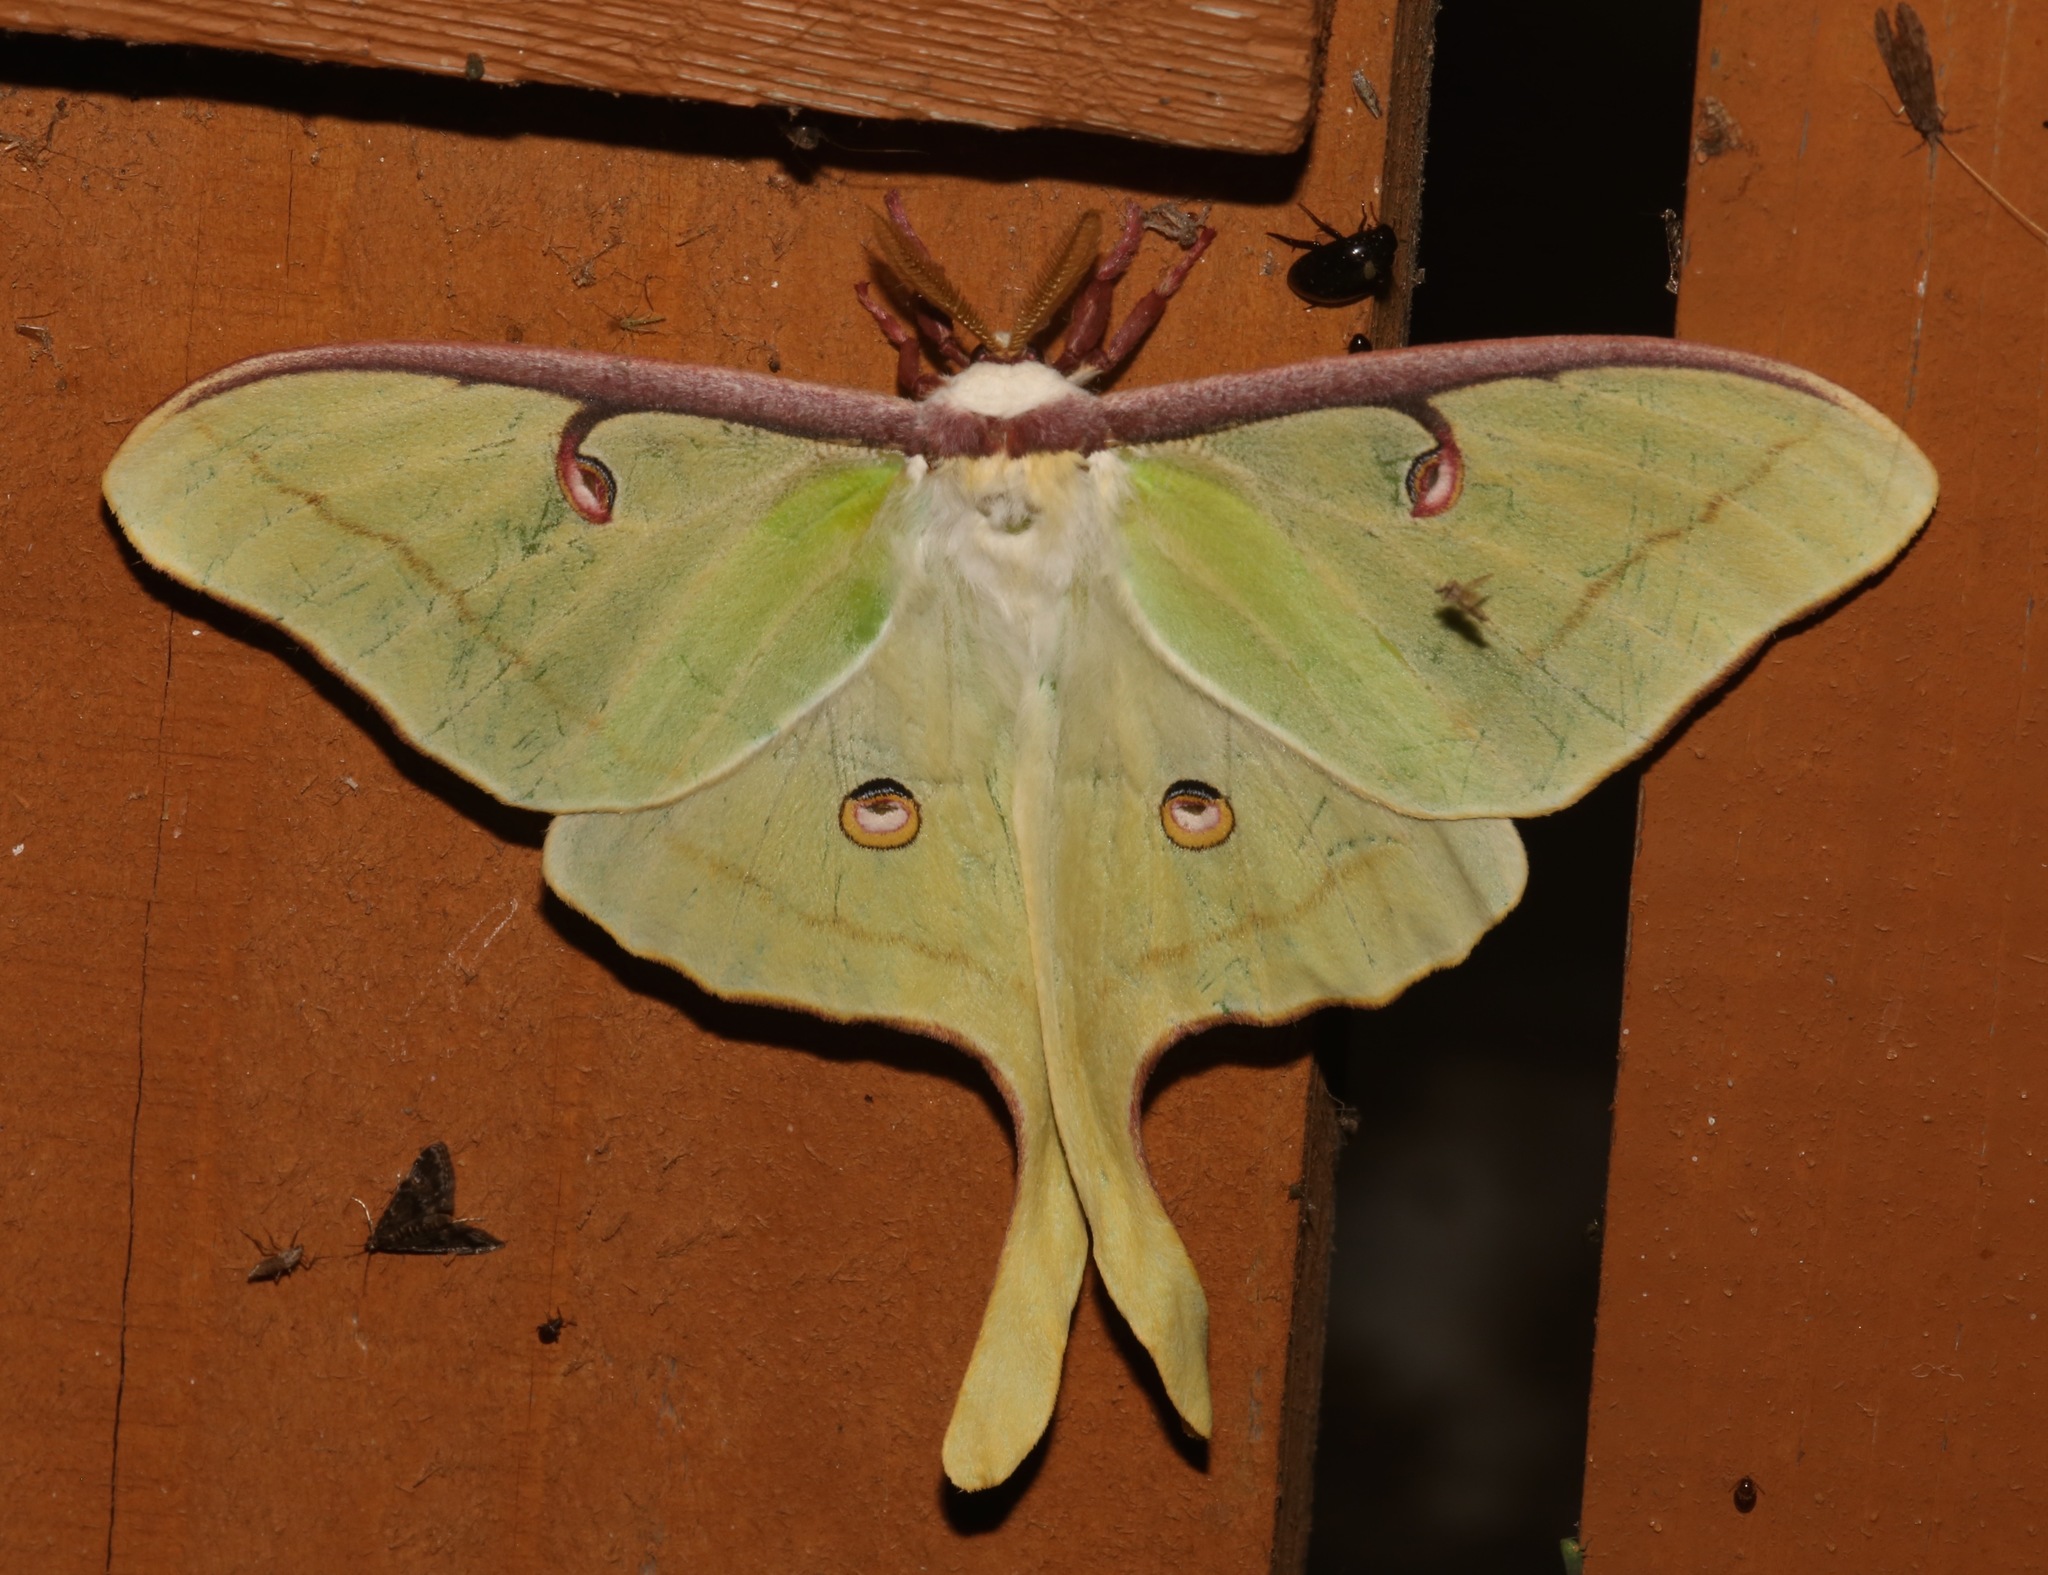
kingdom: Animalia
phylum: Arthropoda
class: Insecta
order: Lepidoptera
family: Saturniidae
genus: Actias
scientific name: Actias luna
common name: Luna moth
